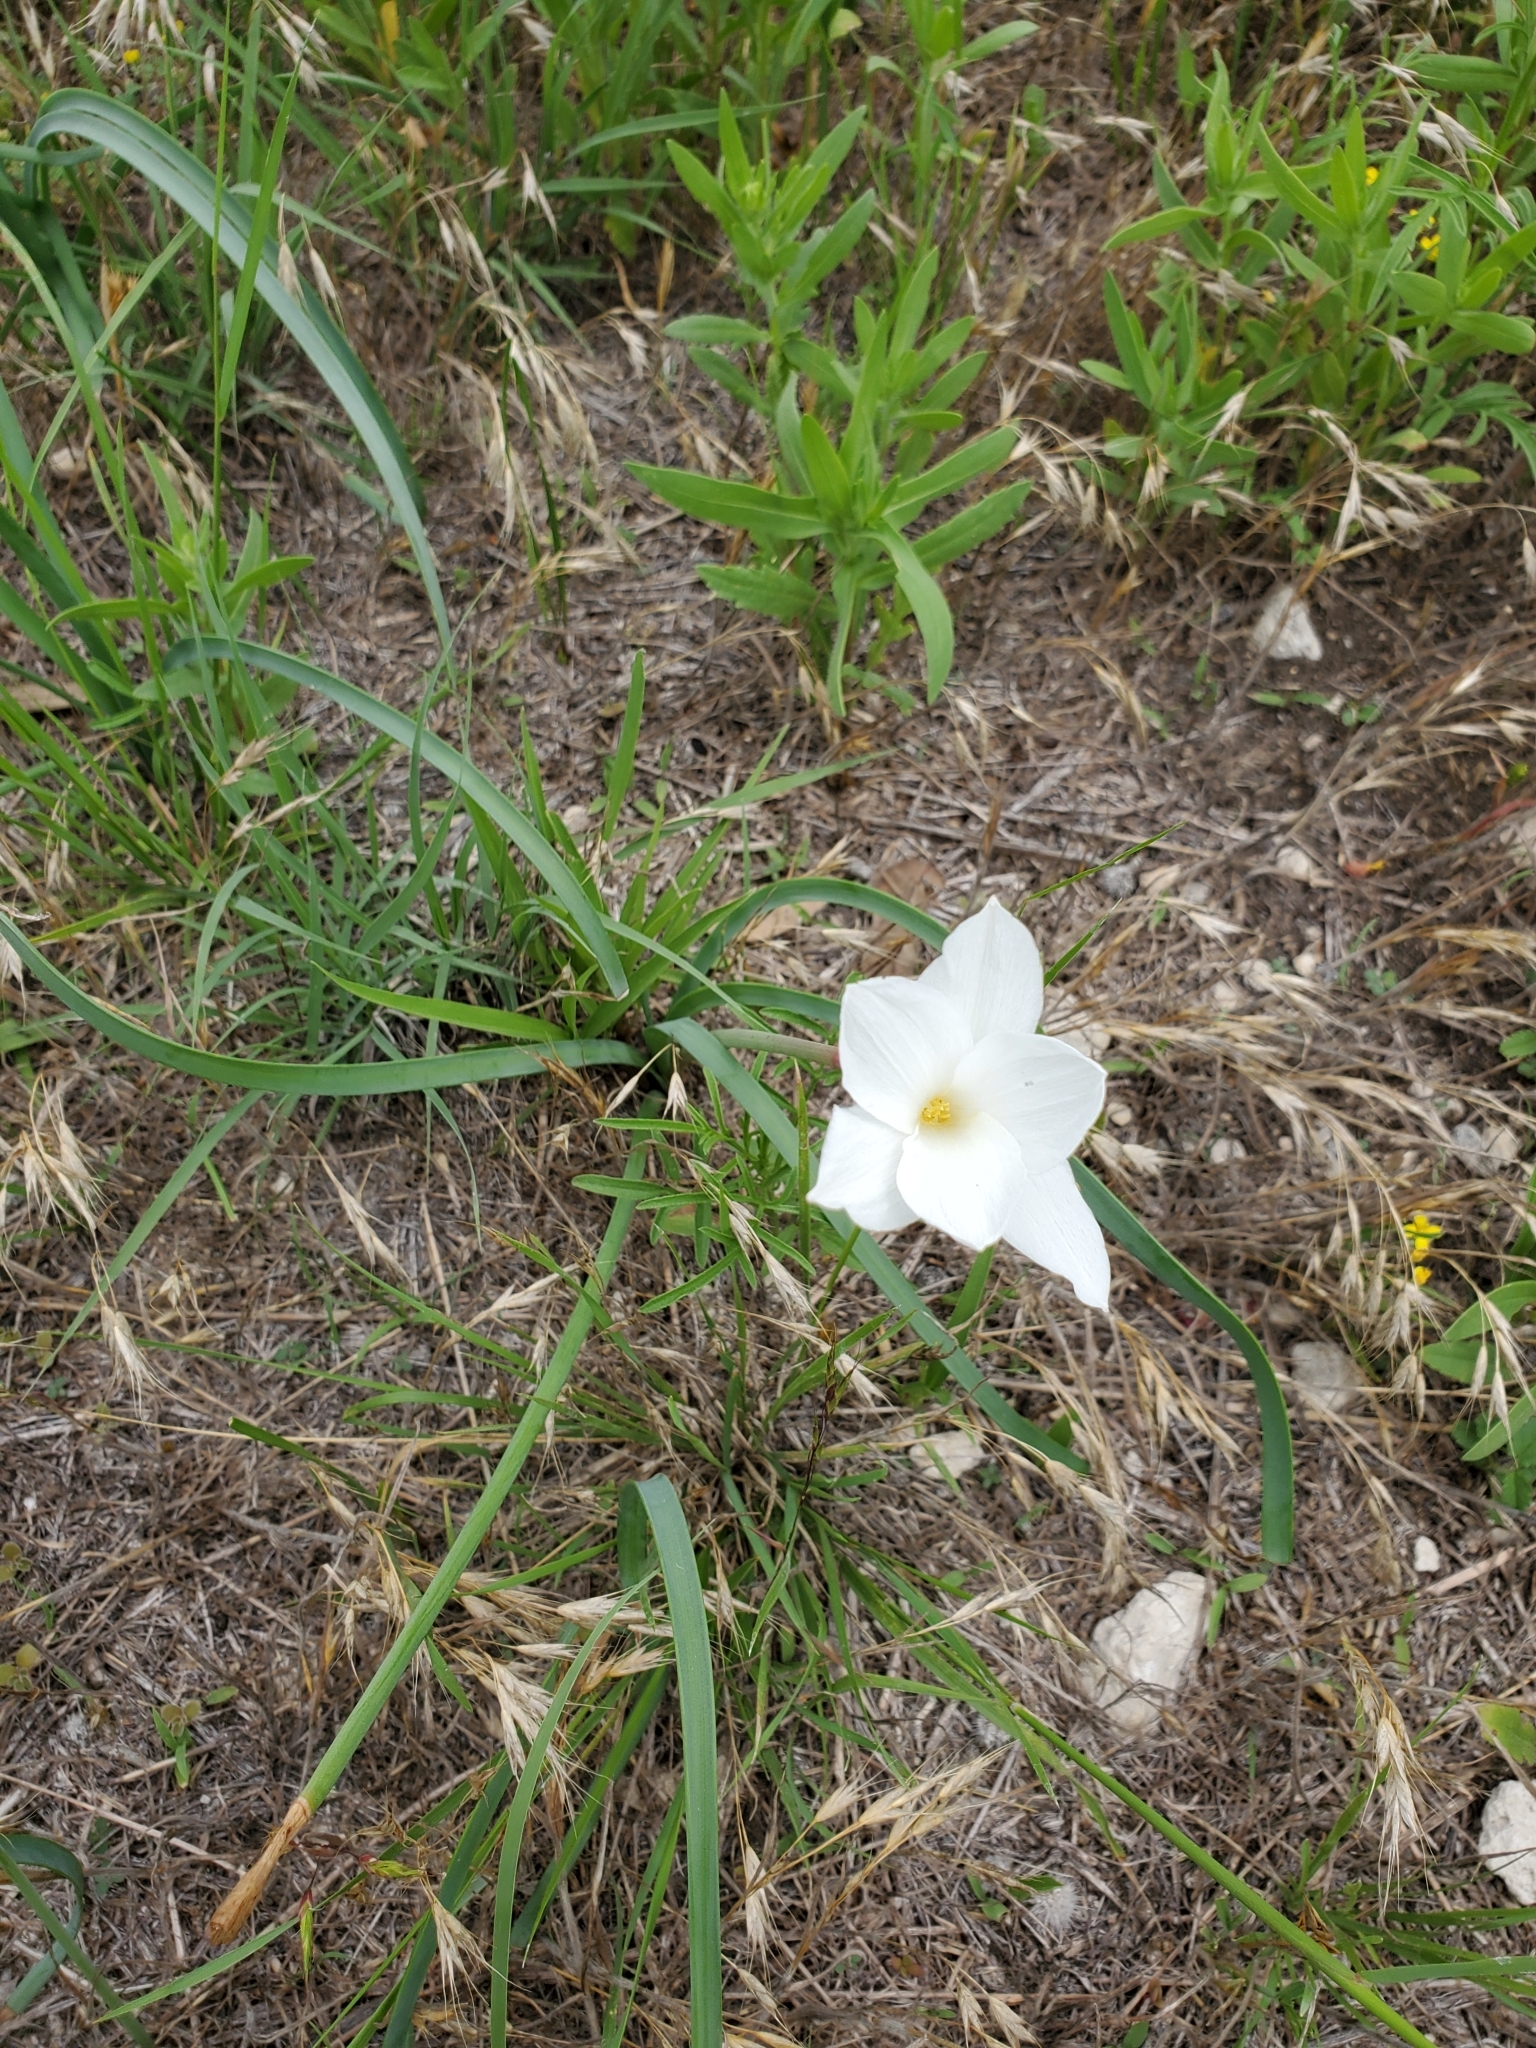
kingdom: Plantae
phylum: Tracheophyta
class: Liliopsida
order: Asparagales
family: Amaryllidaceae
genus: Zephyranthes
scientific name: Zephyranthes drummondii
